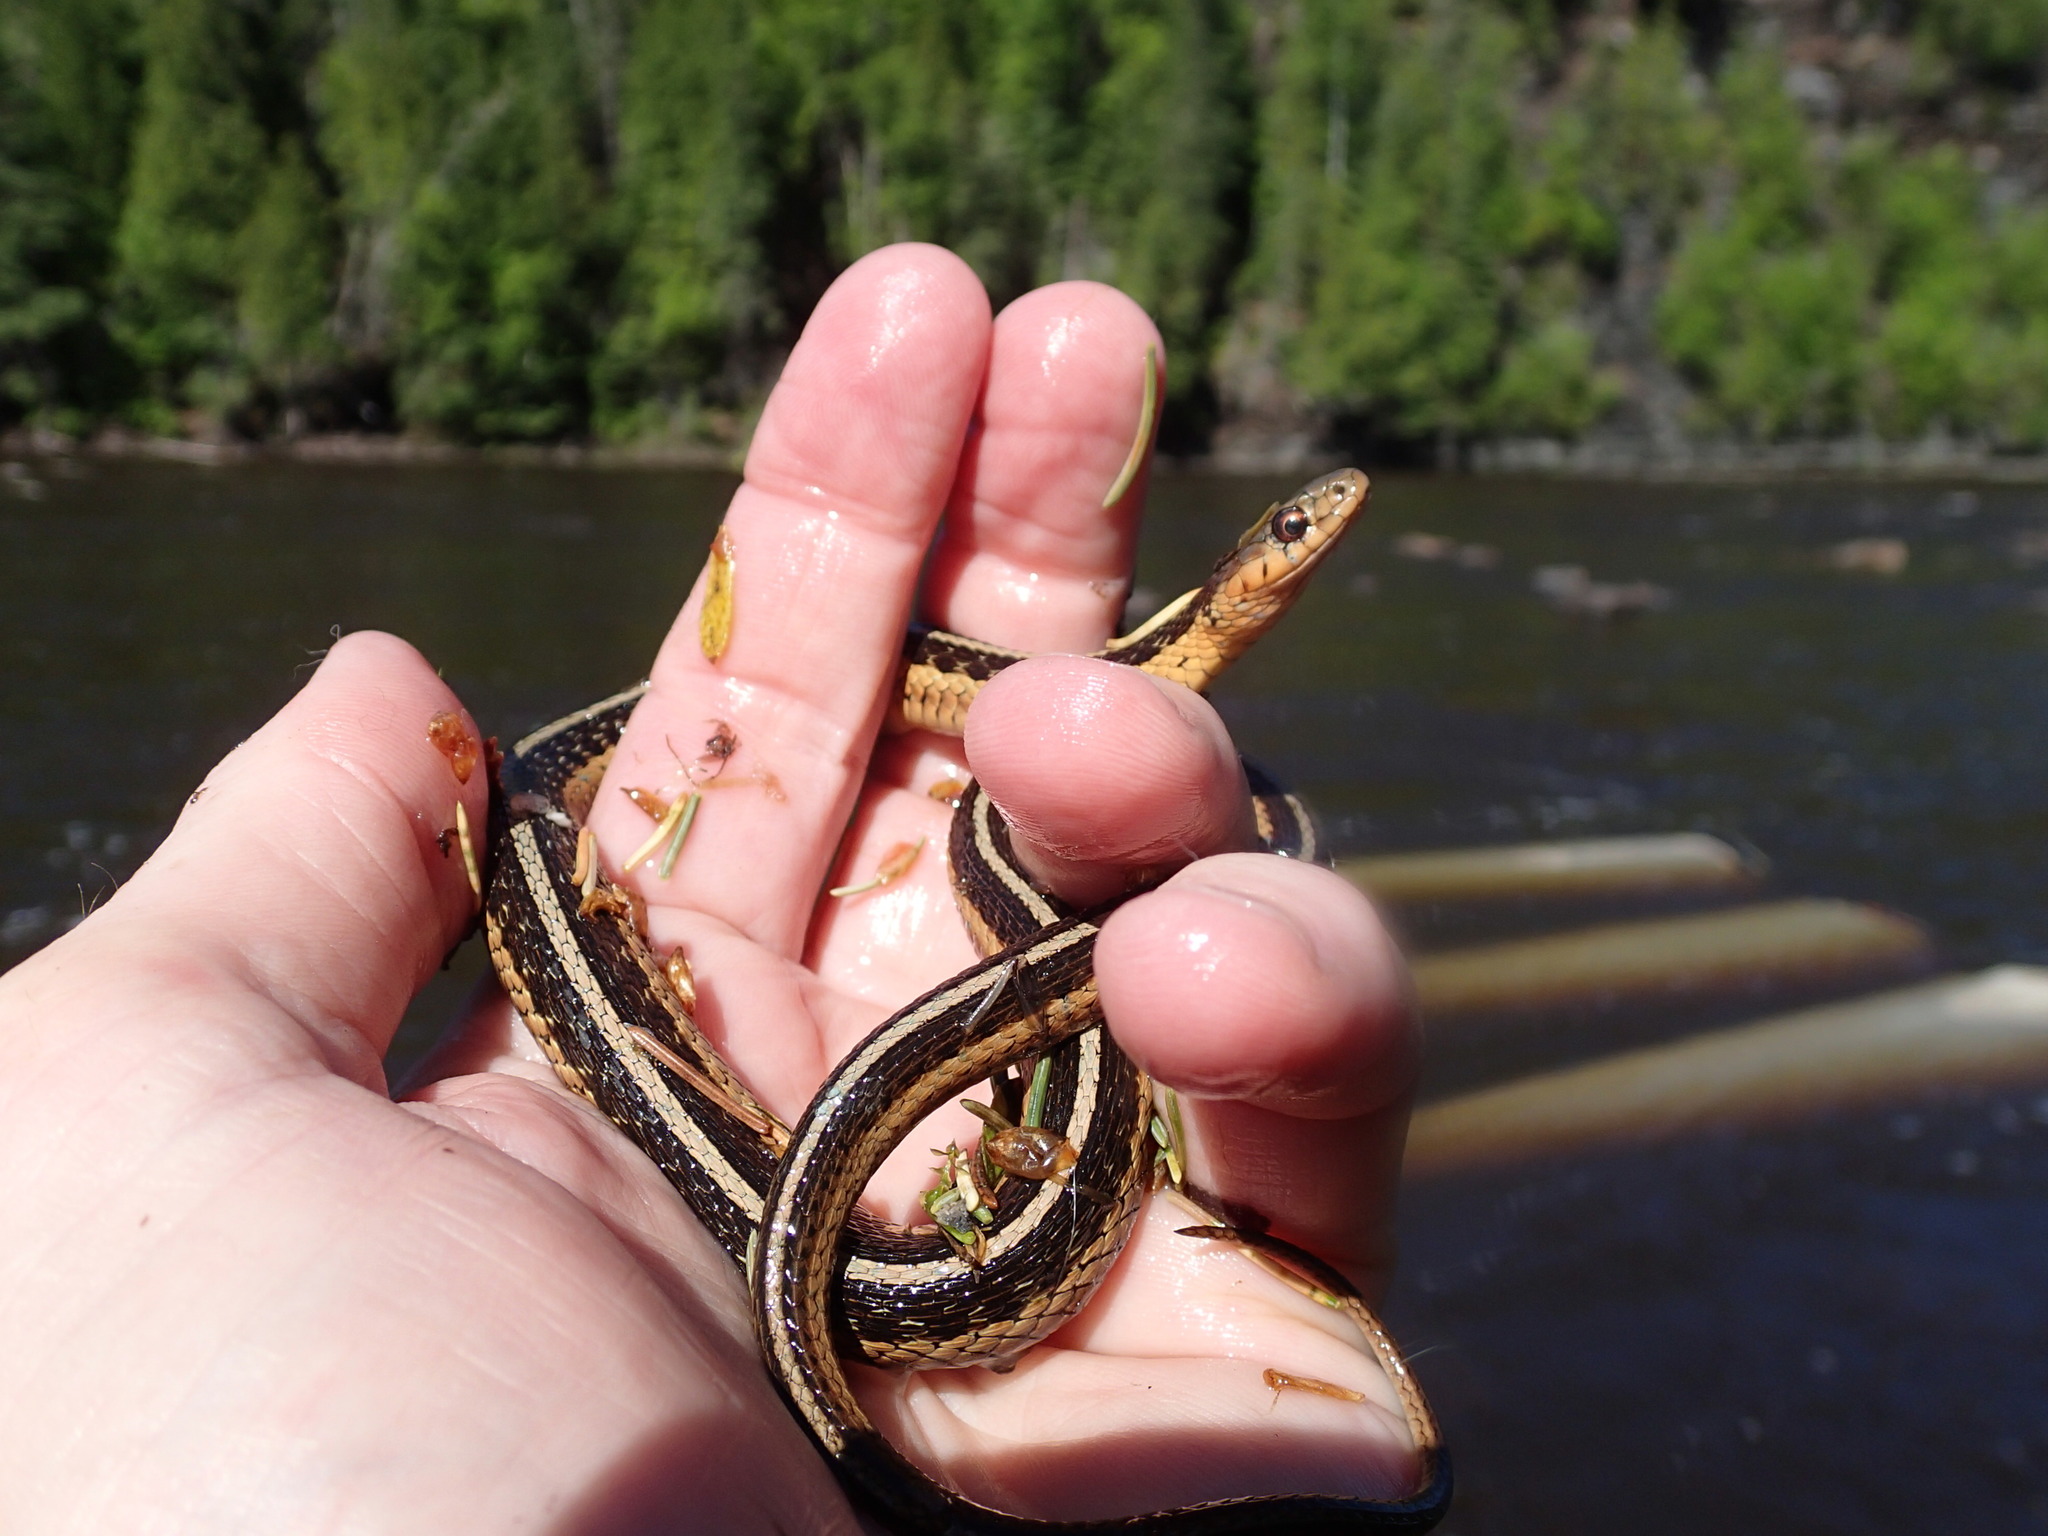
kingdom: Animalia
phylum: Chordata
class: Squamata
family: Colubridae
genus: Thamnophis
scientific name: Thamnophis sirtalis
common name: Common garter snake
